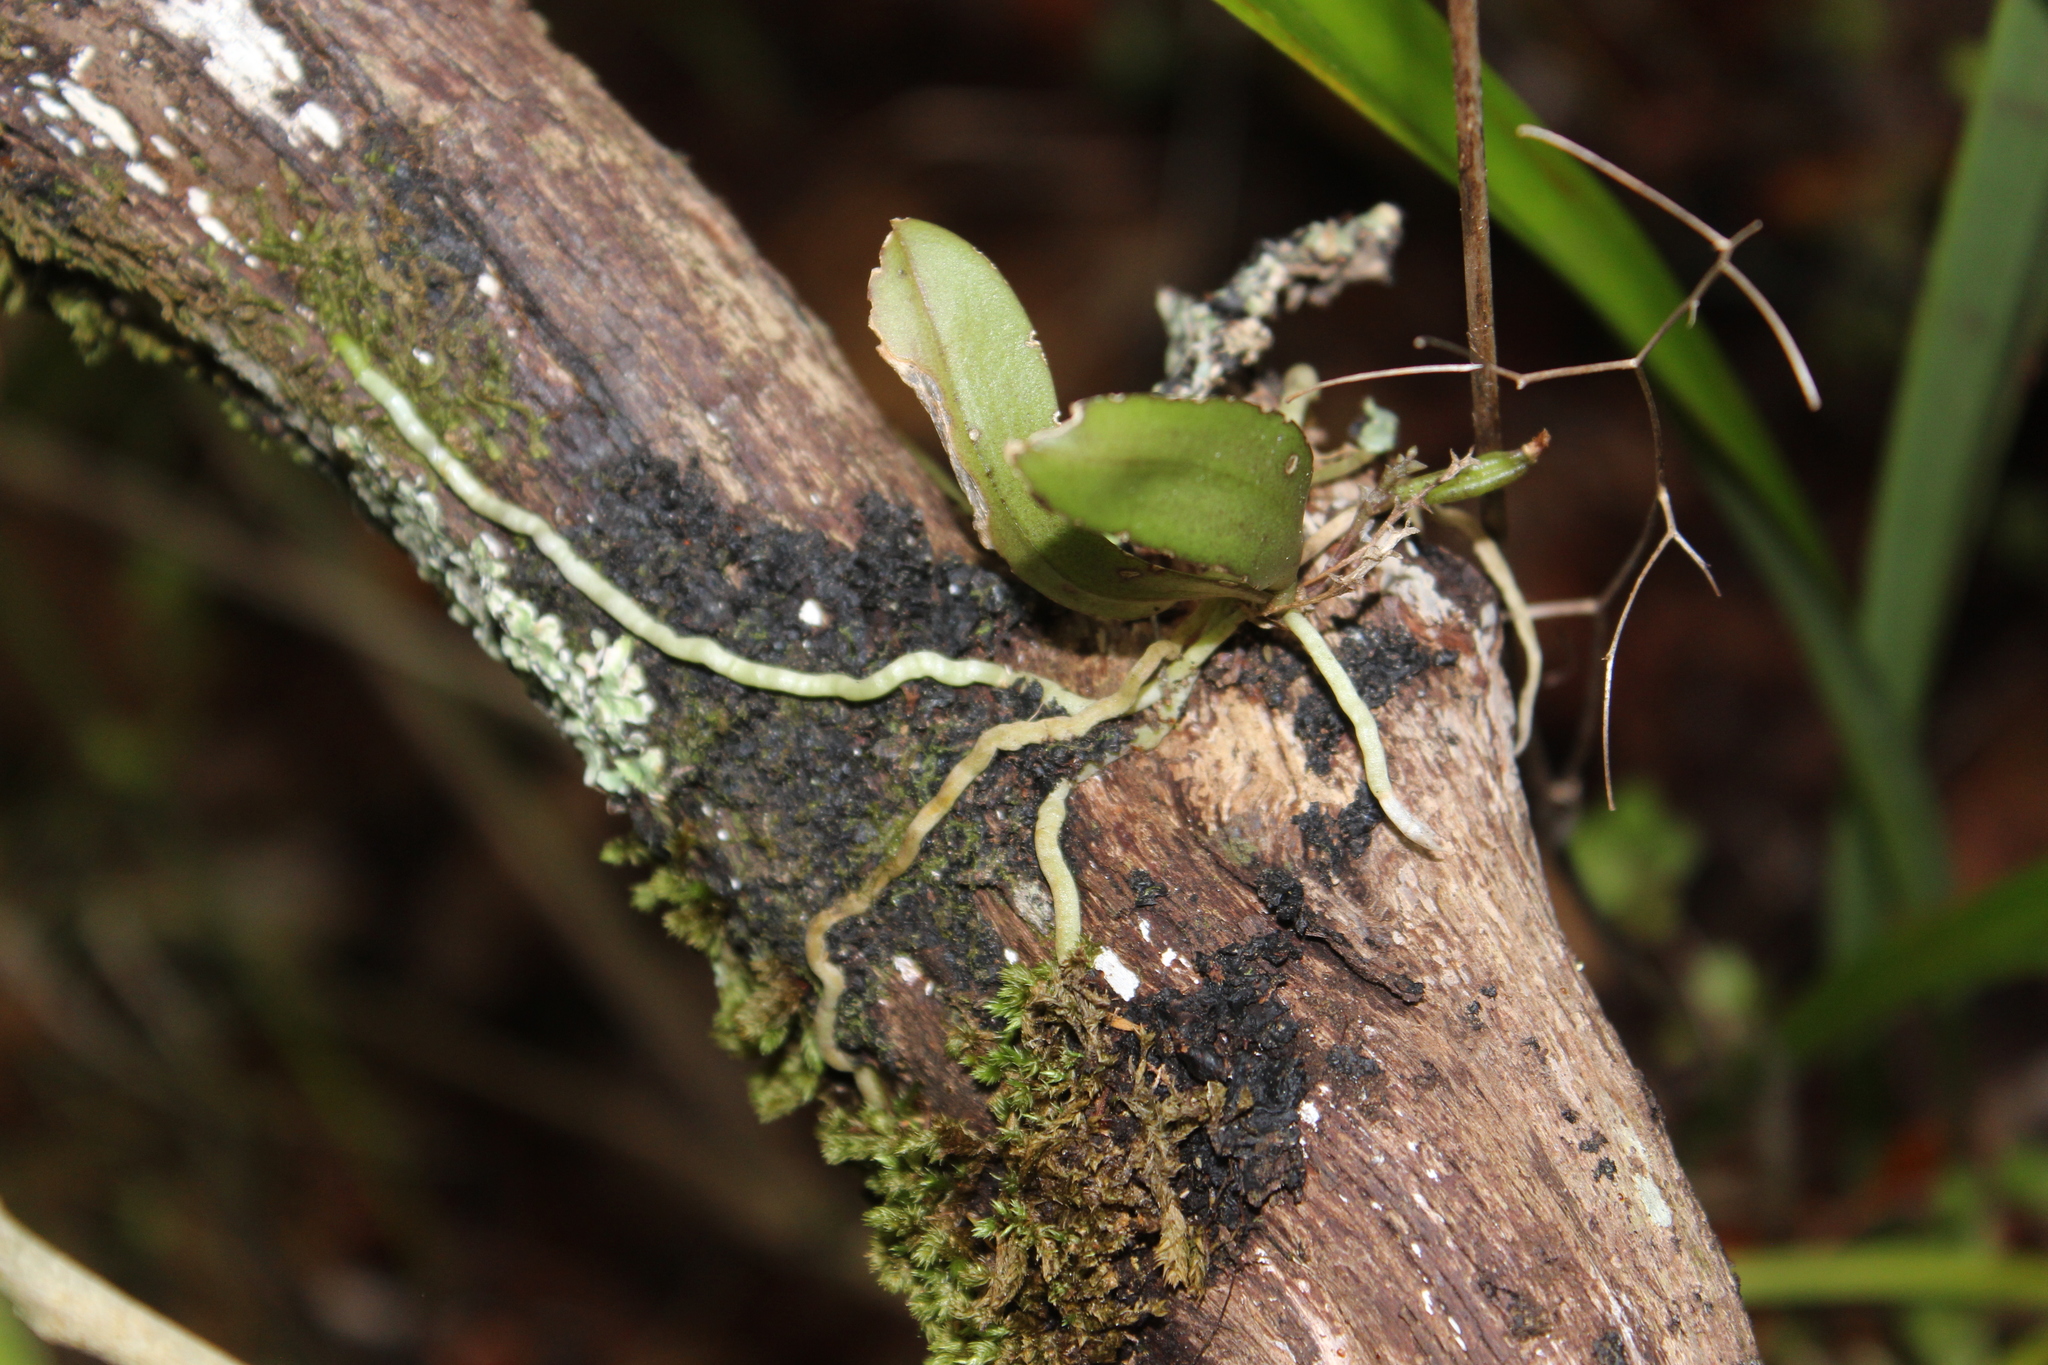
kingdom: Plantae
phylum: Tracheophyta
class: Liliopsida
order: Asparagales
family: Orchidaceae
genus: Drymoanthus
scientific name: Drymoanthus adversus
